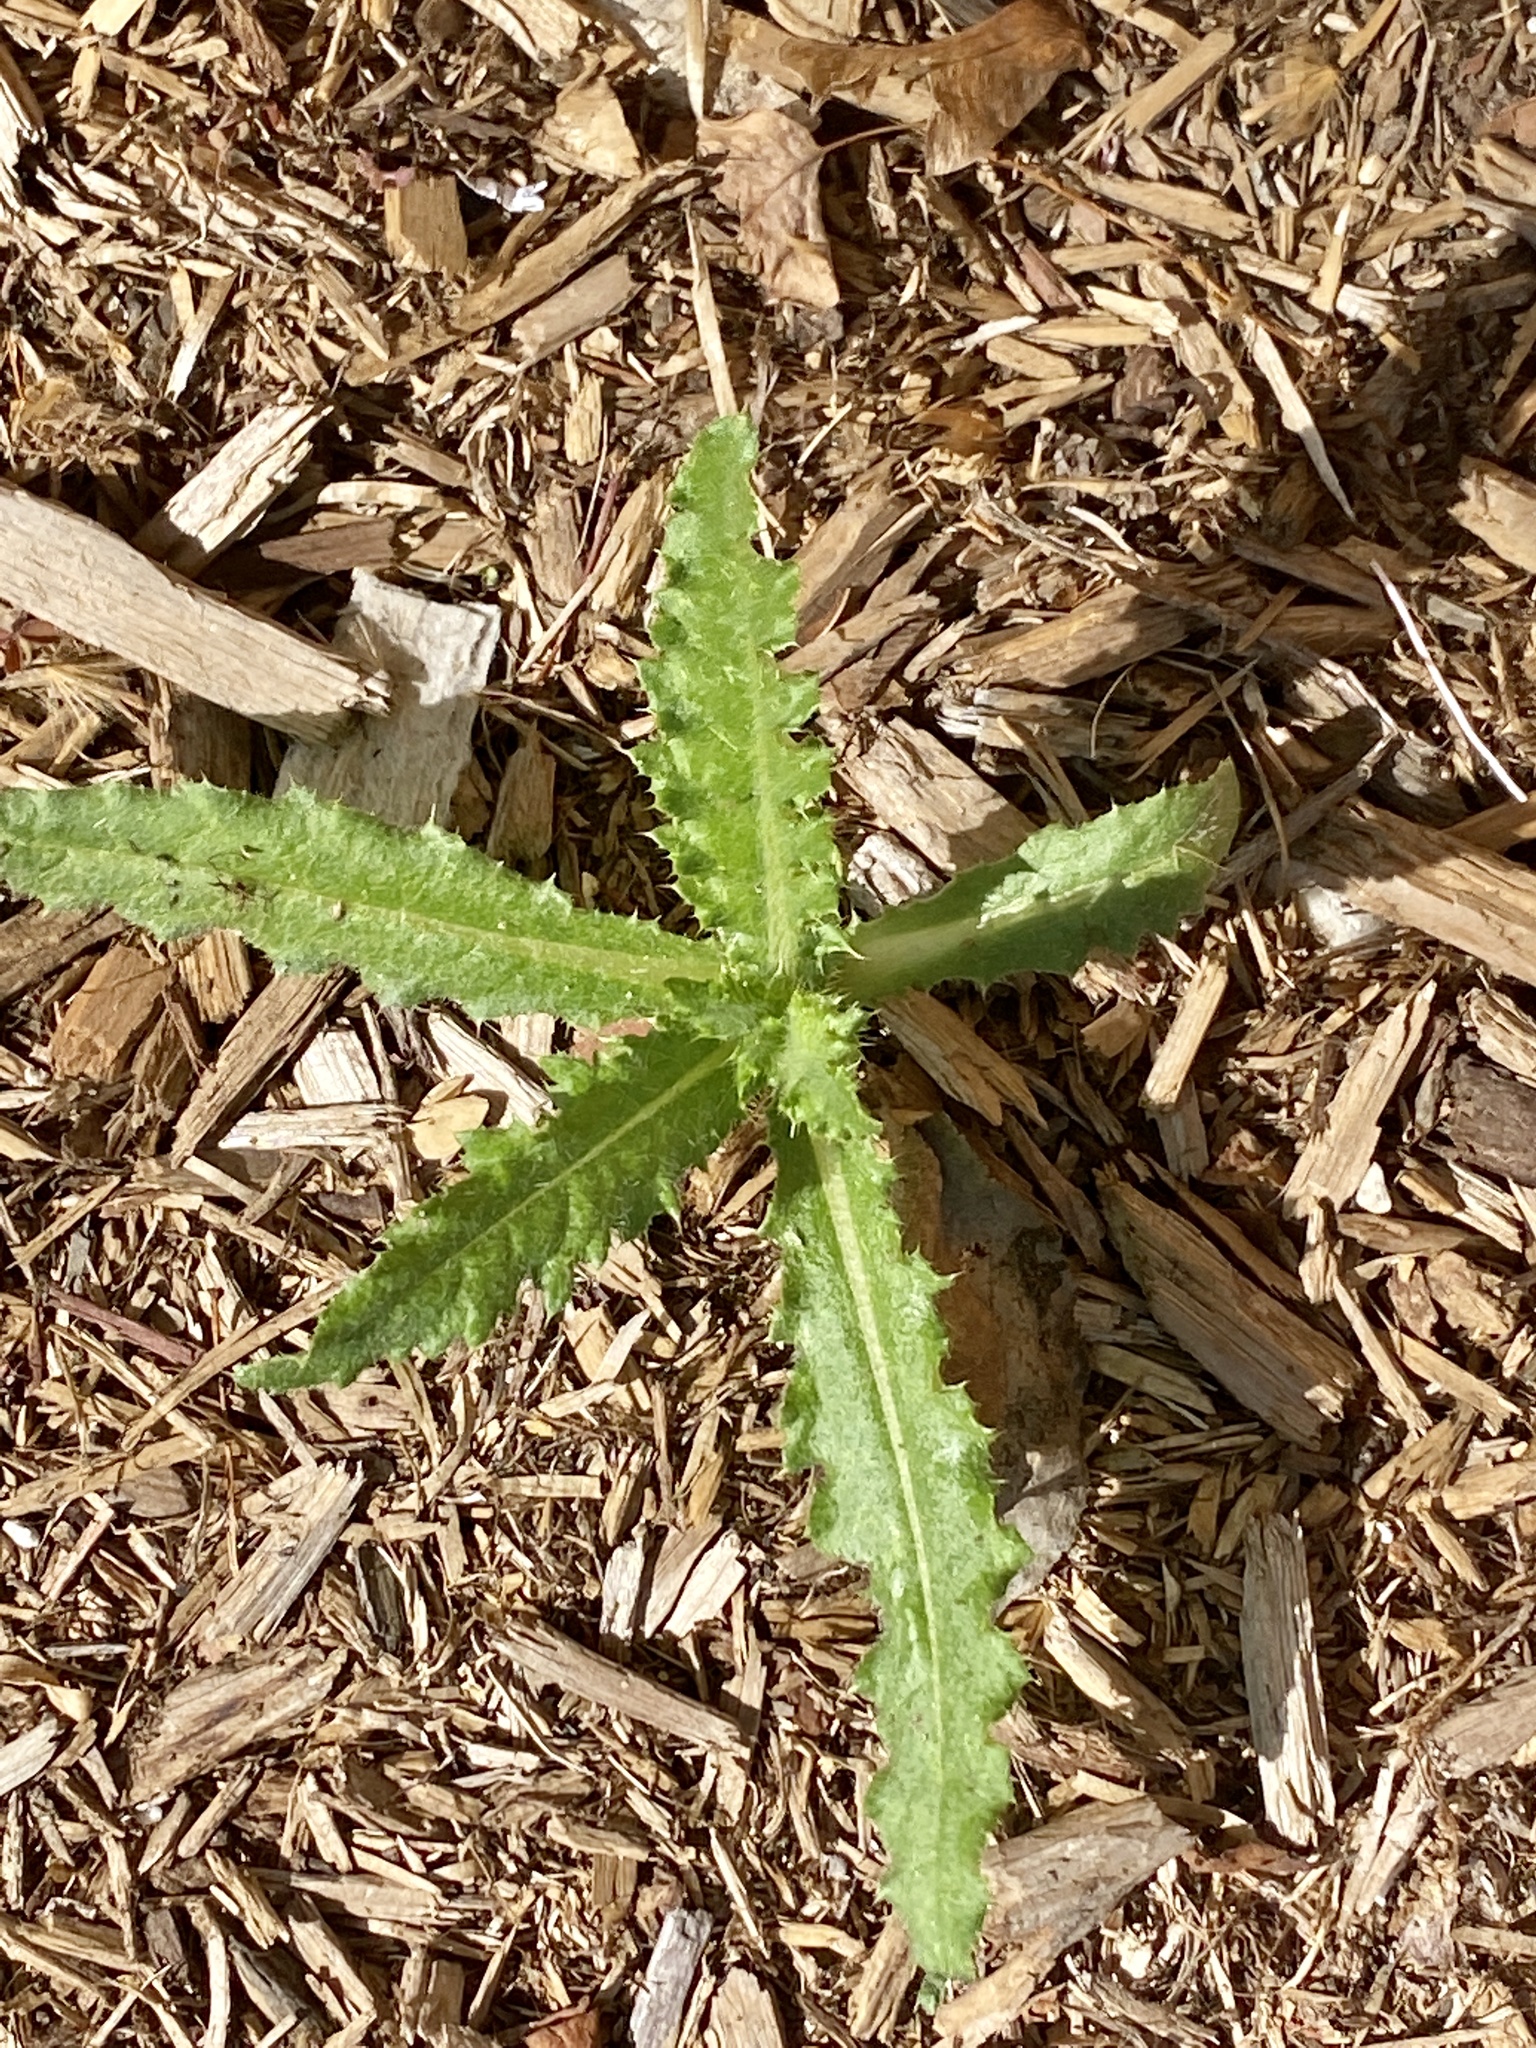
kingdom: Plantae
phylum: Tracheophyta
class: Magnoliopsida
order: Asterales
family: Asteraceae
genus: Cirsium
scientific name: Cirsium arvense
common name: Creeping thistle
